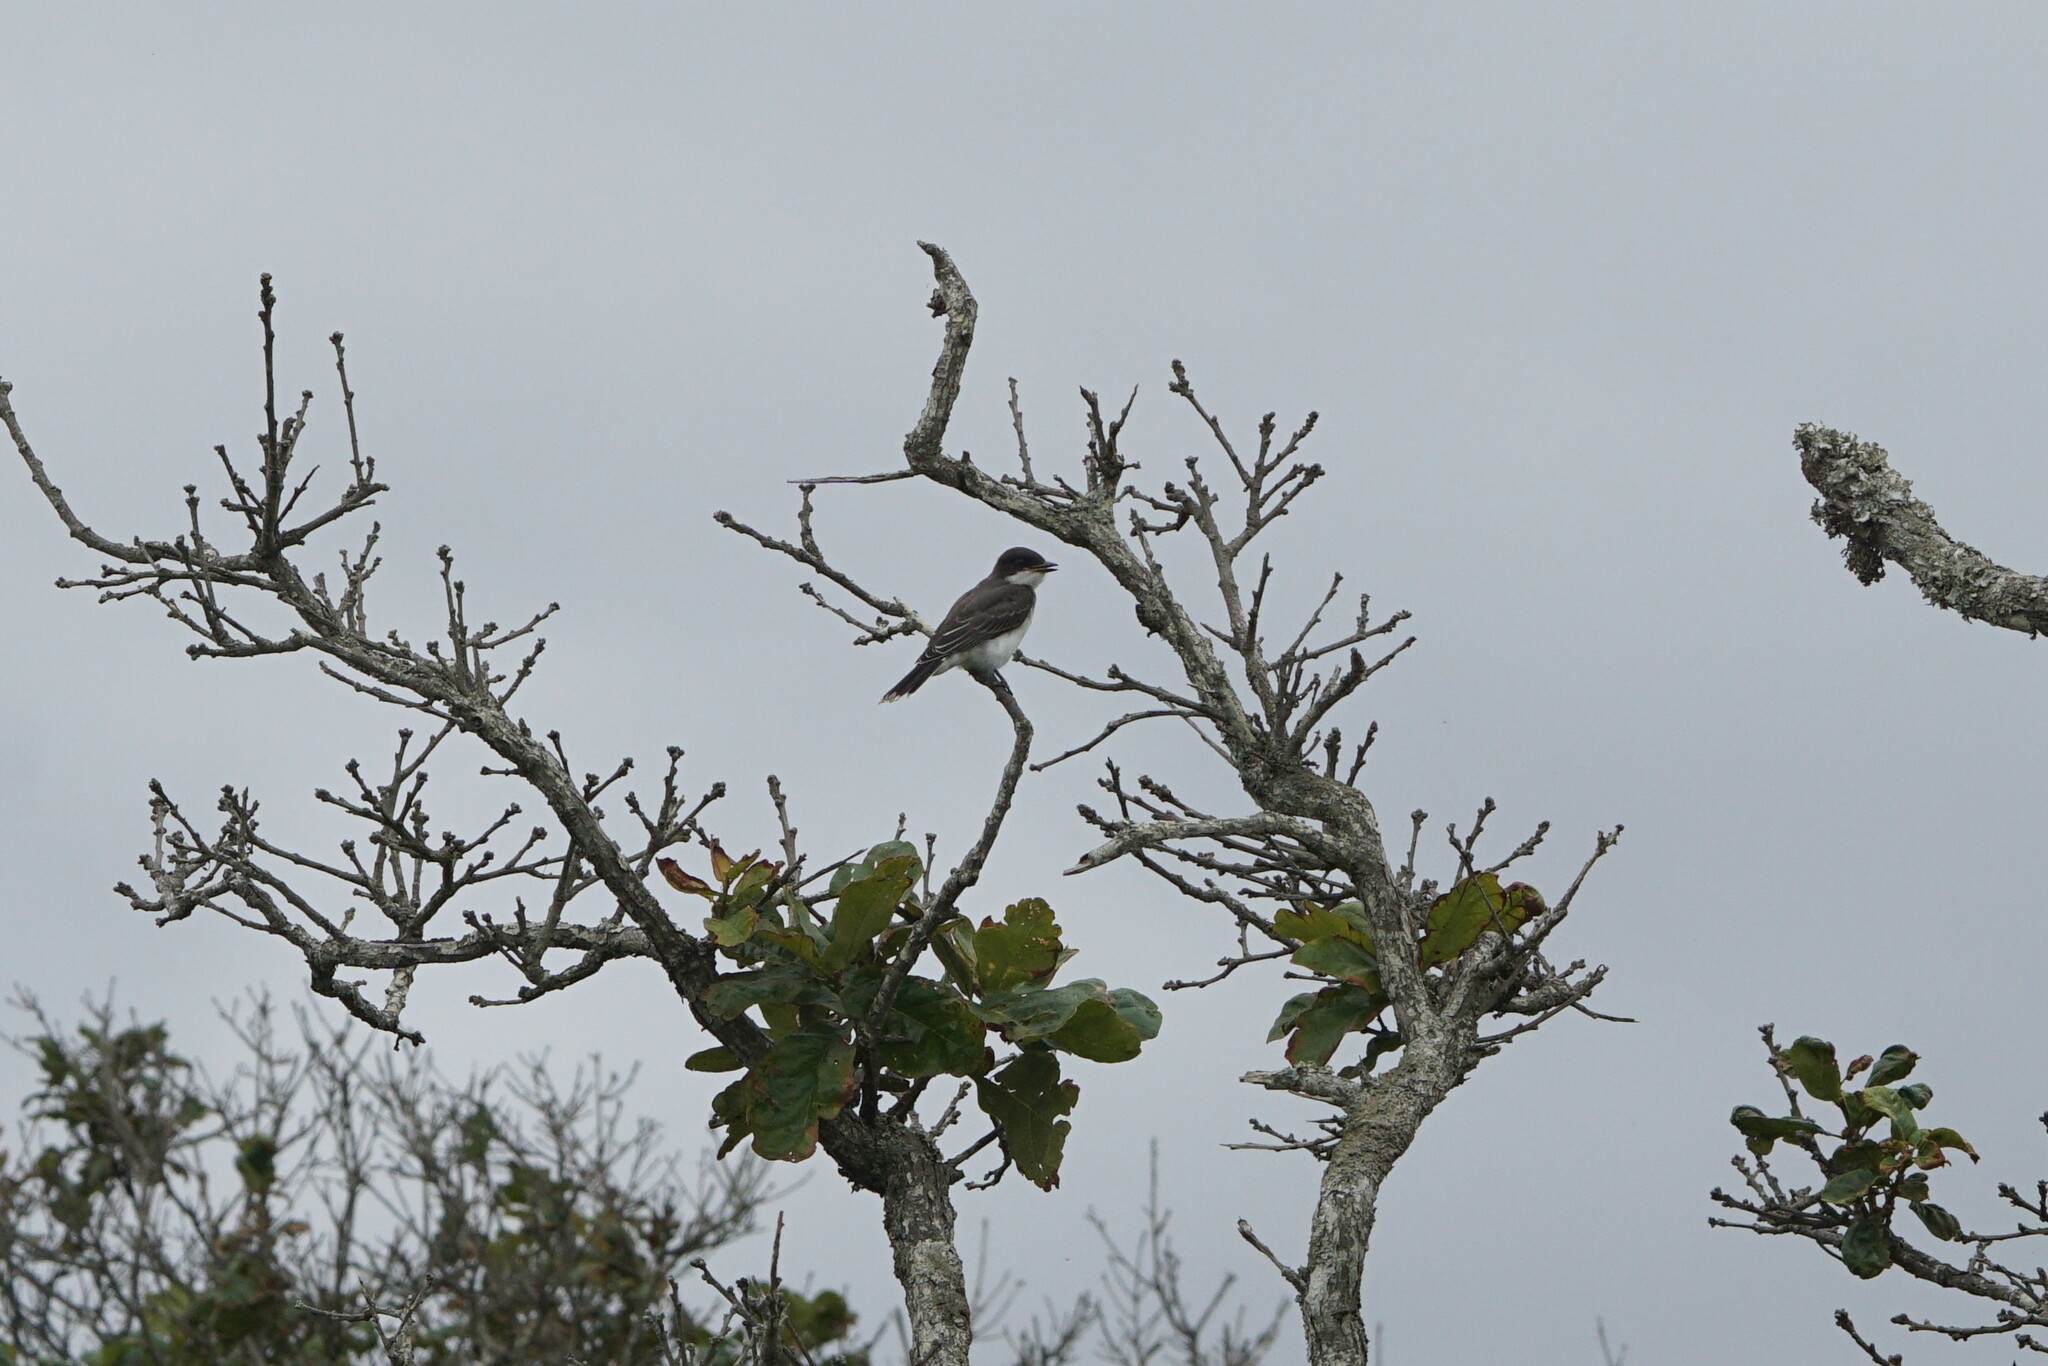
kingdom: Animalia
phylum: Chordata
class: Aves
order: Passeriformes
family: Tyrannidae
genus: Tyrannus
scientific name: Tyrannus tyrannus
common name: Eastern kingbird
